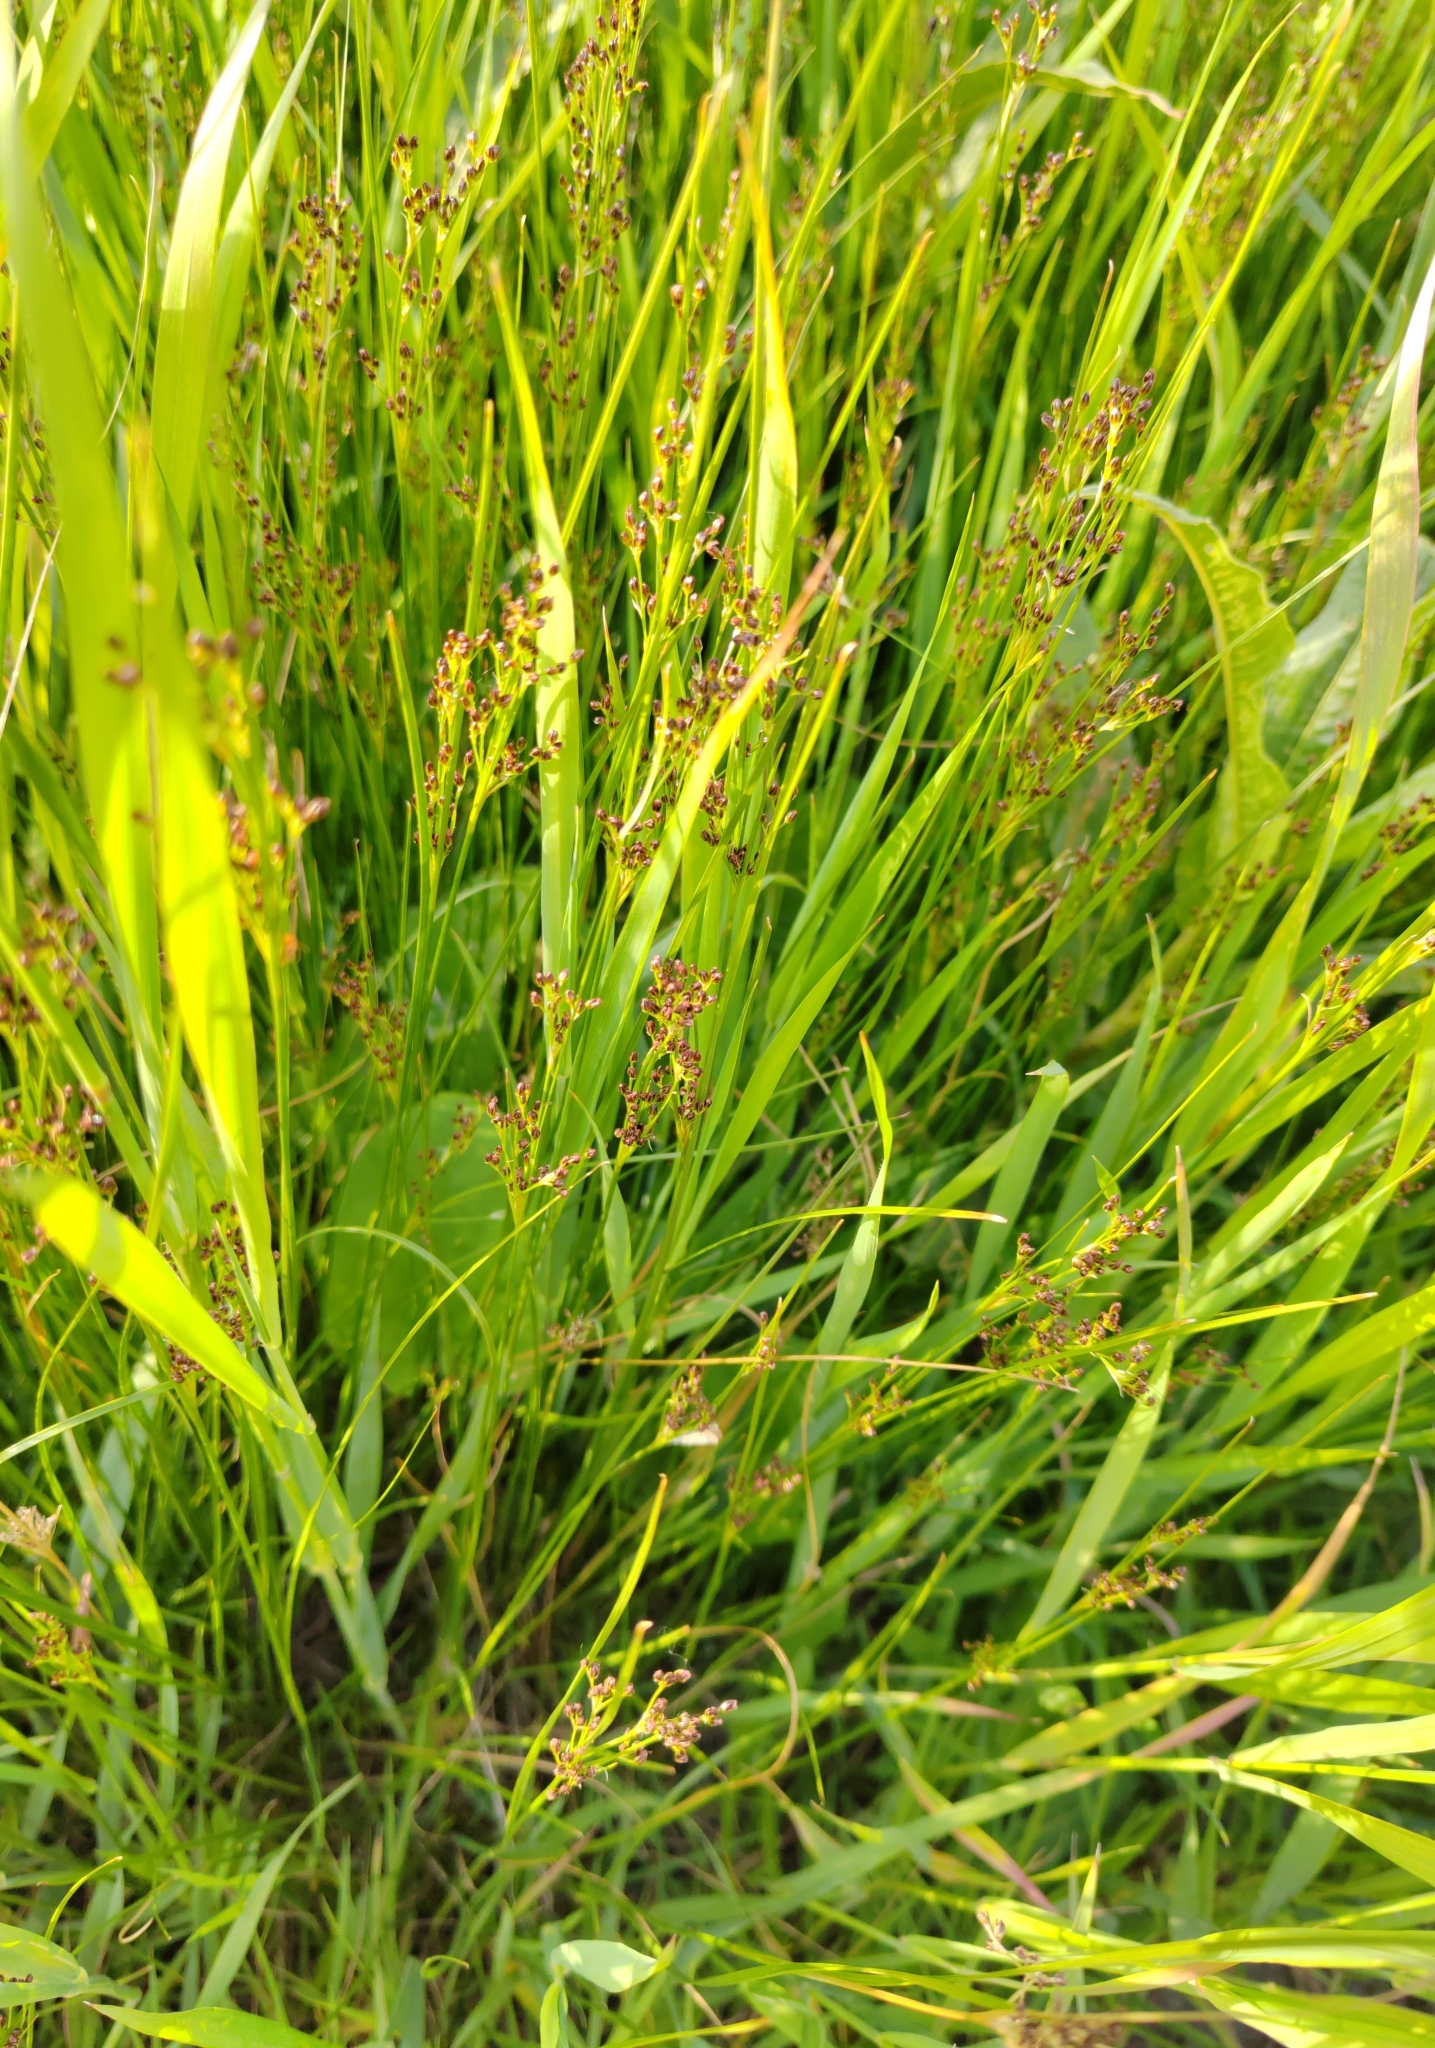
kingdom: Plantae
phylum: Tracheophyta
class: Liliopsida
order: Poales
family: Juncaceae
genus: Juncus
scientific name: Juncus compressus
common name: Round-fruited rush
